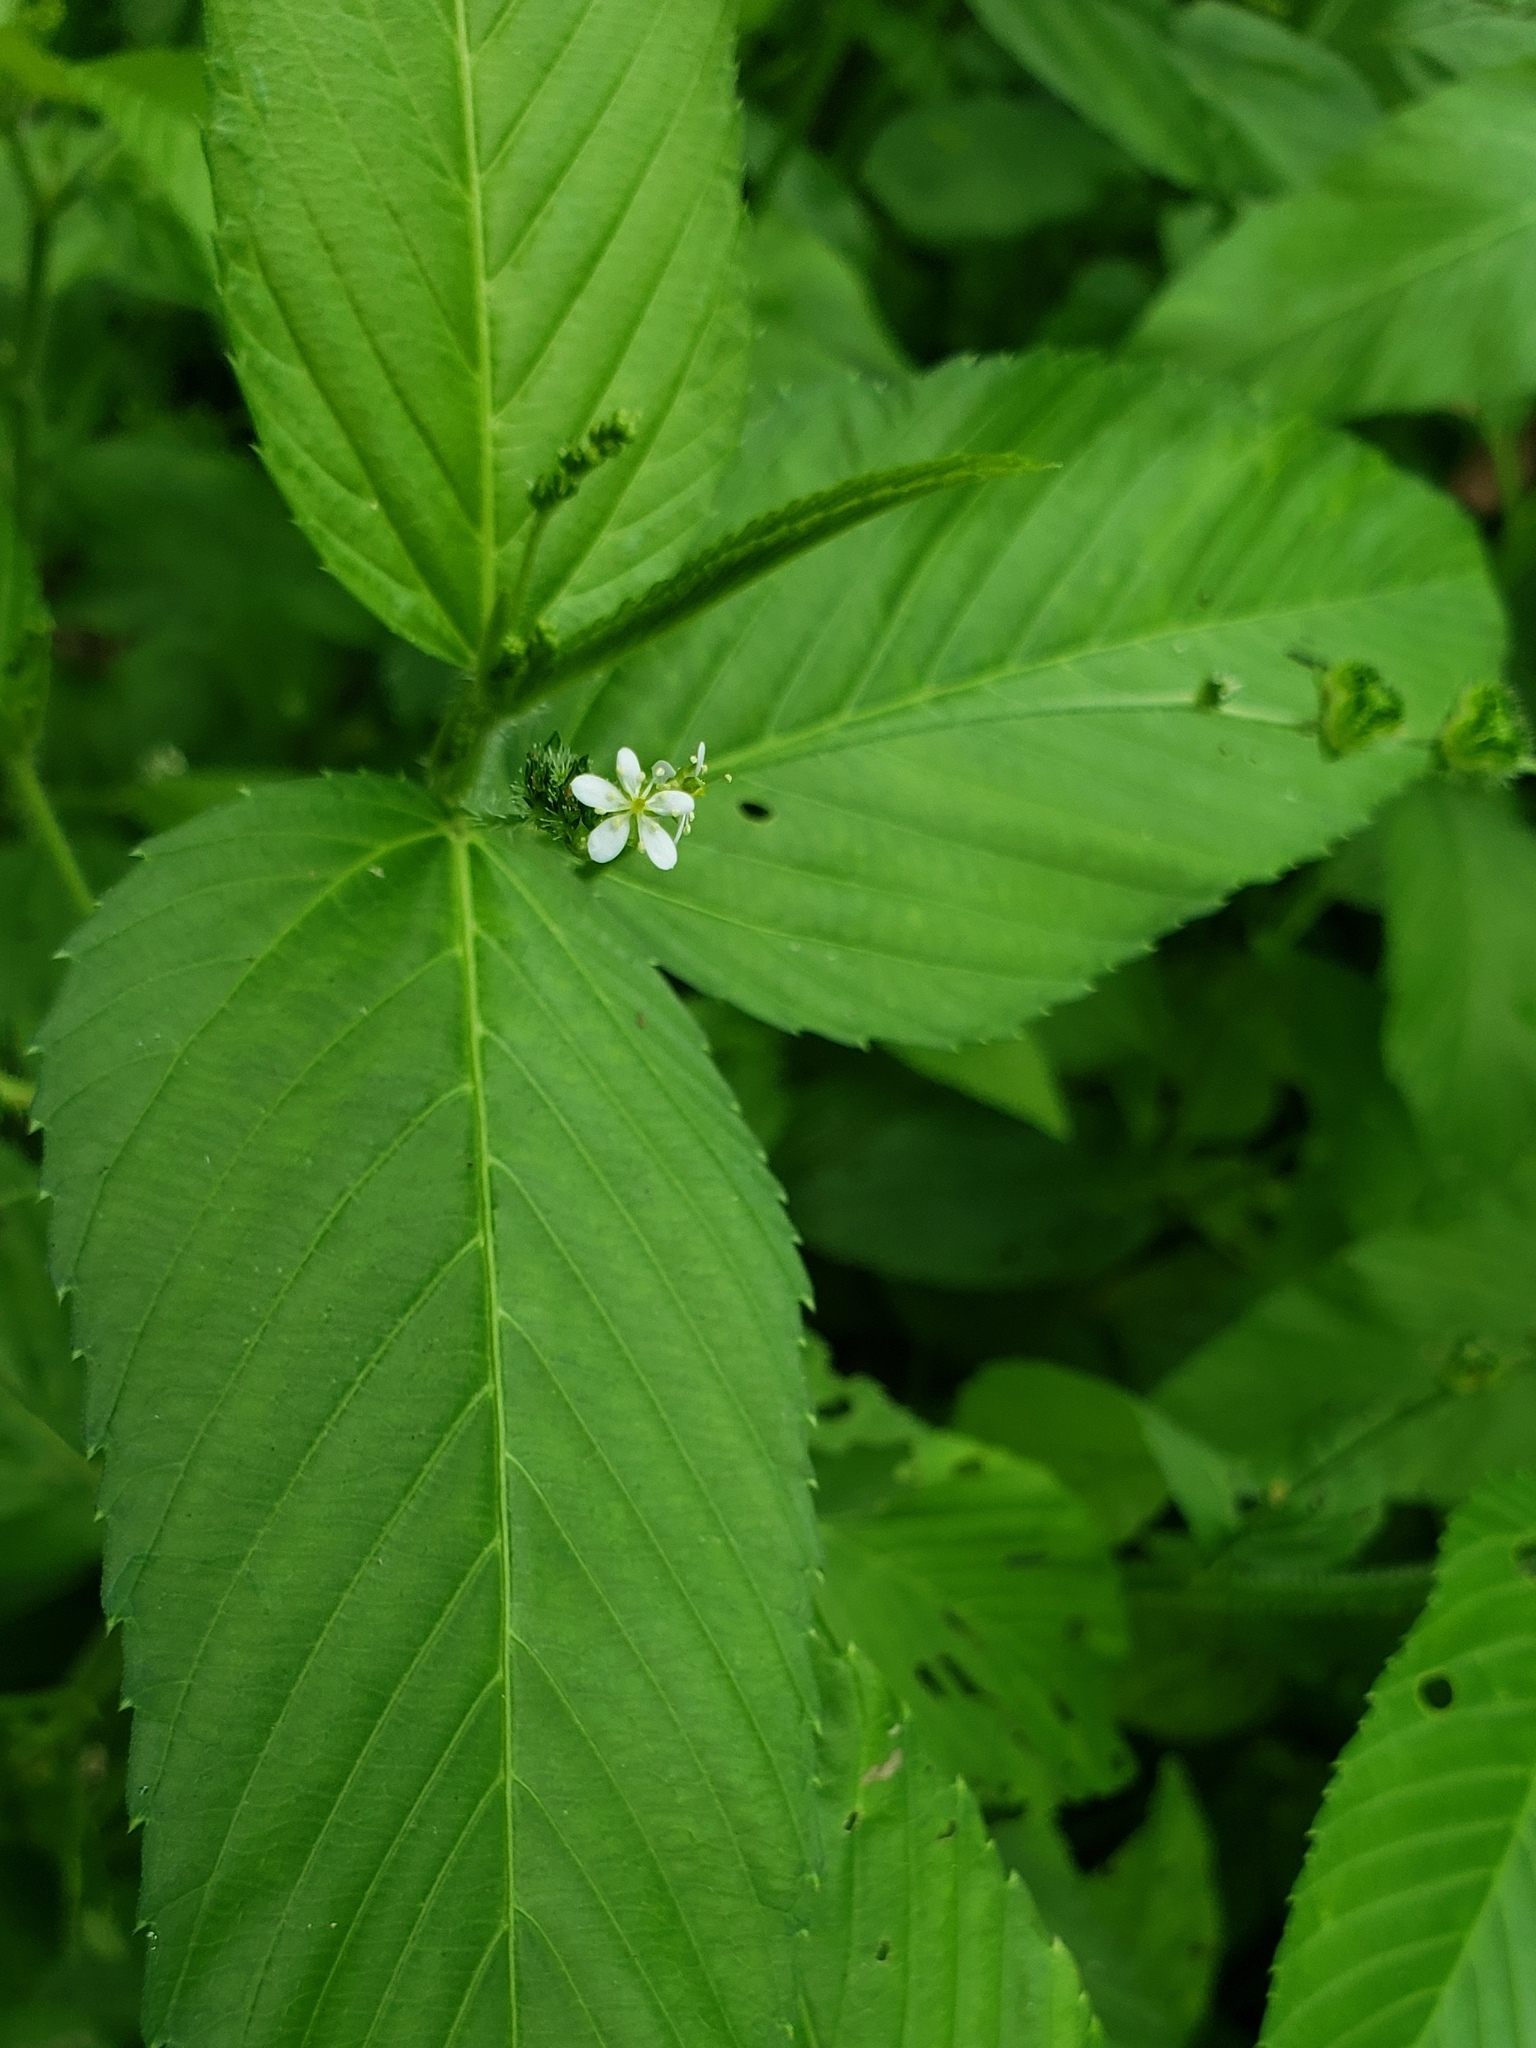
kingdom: Plantae
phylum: Tracheophyta
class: Magnoliopsida
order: Malpighiales
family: Euphorbiaceae
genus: Caperonia
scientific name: Caperonia palustris
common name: Sacatrapo
